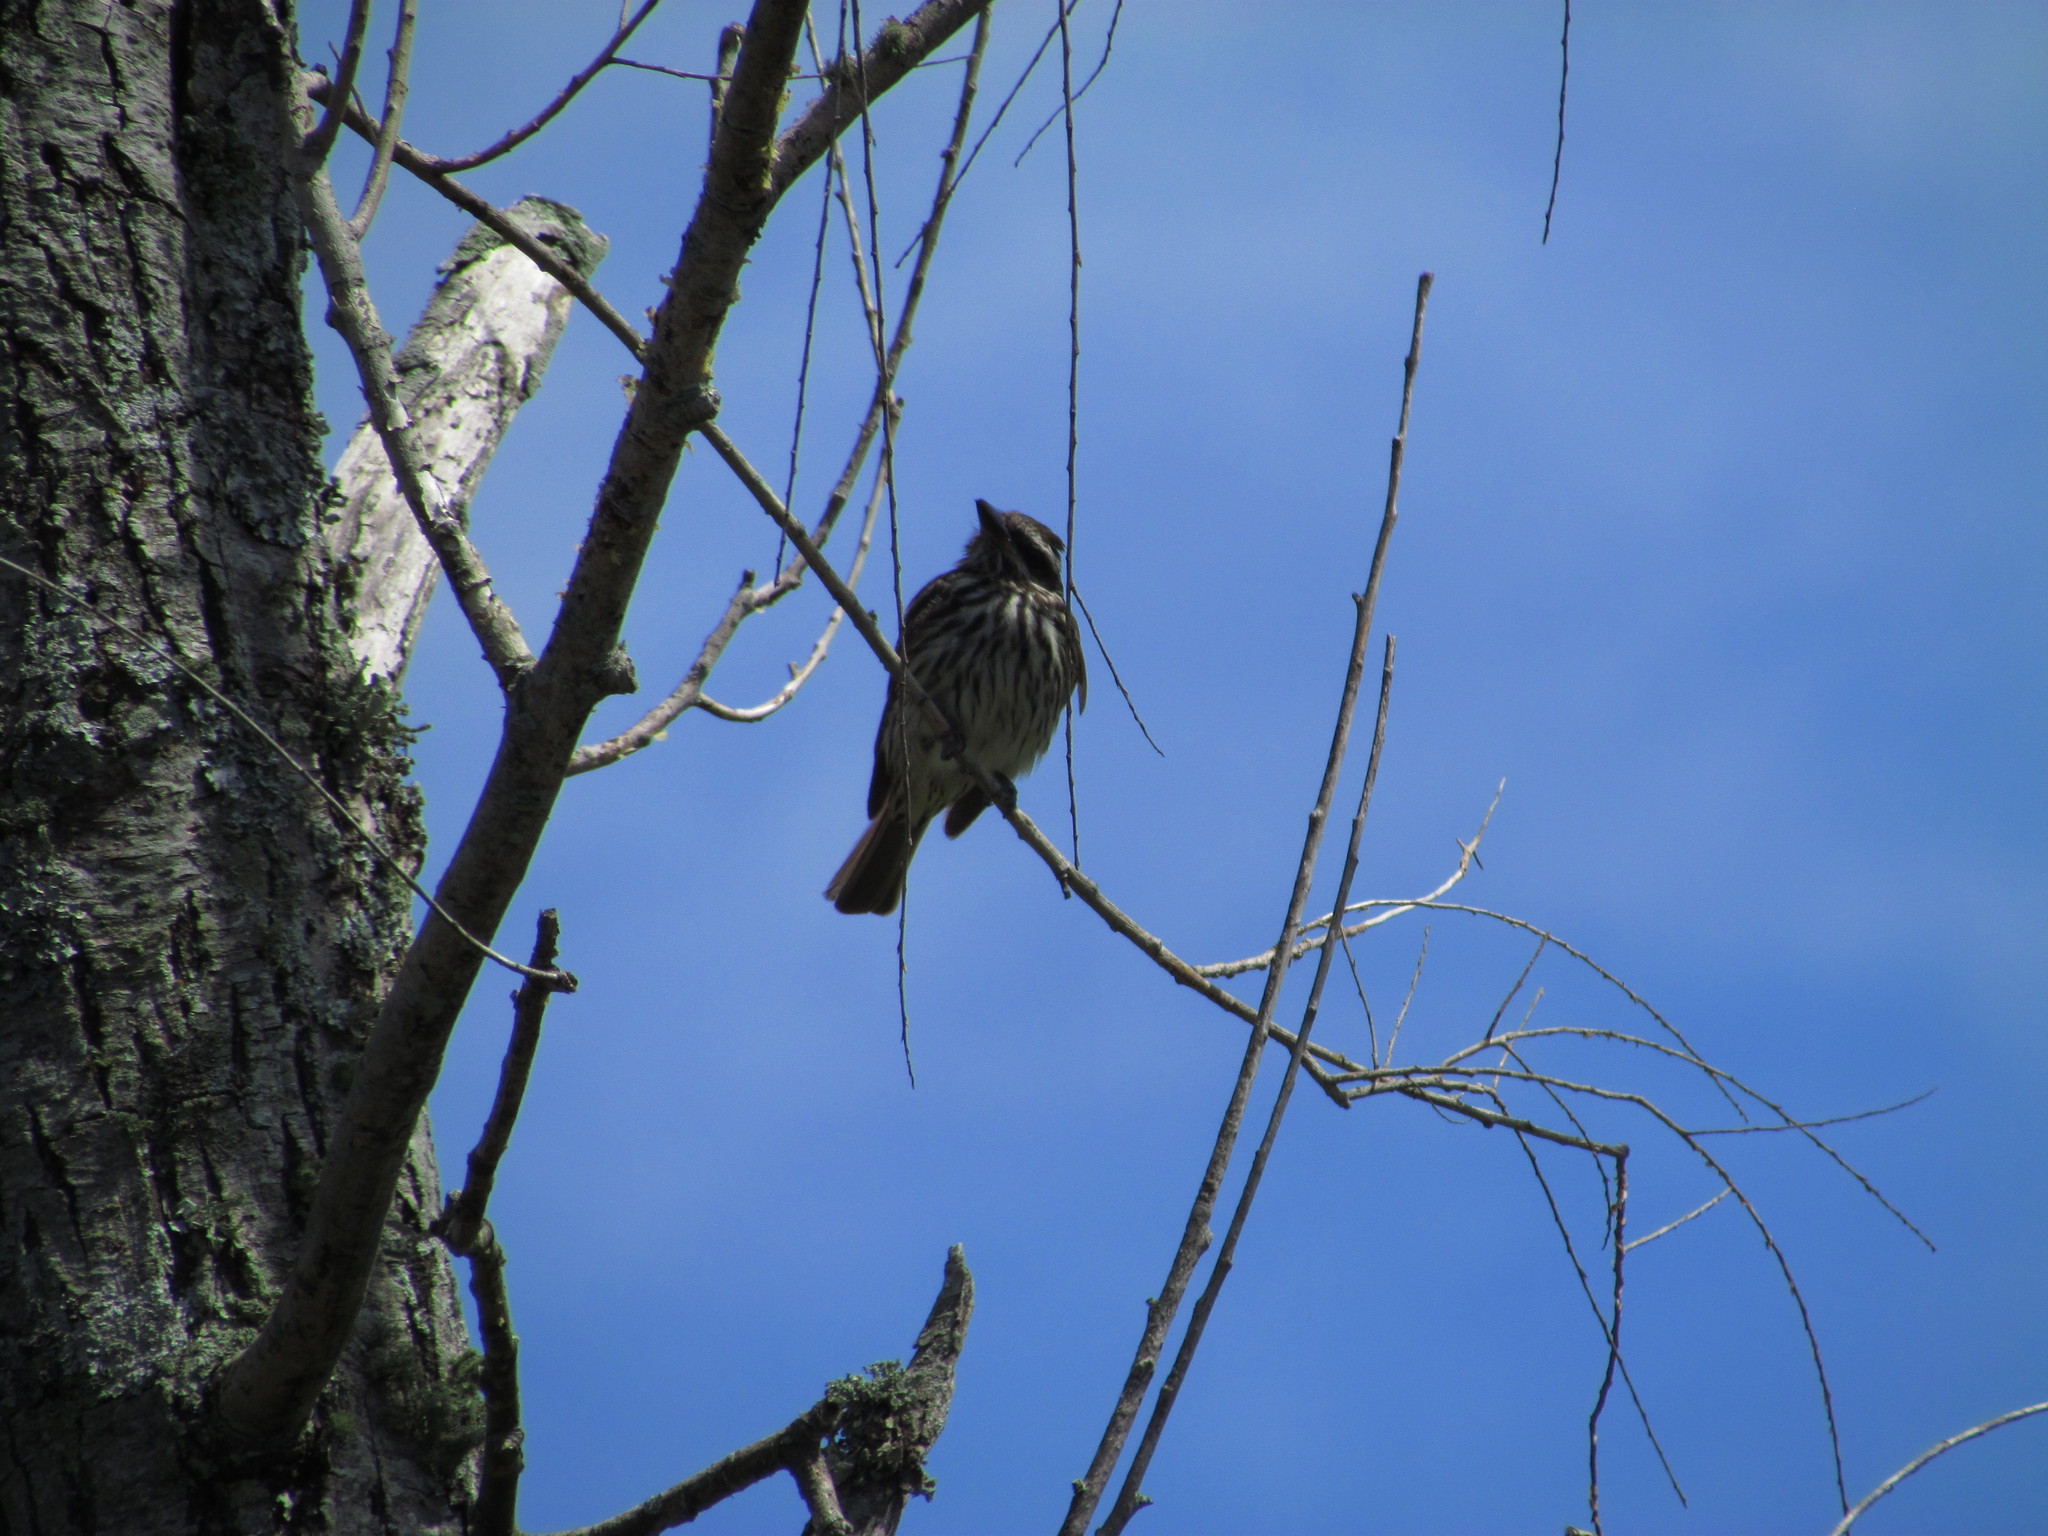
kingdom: Animalia
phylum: Chordata
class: Aves
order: Passeriformes
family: Tyrannidae
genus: Myiodynastes
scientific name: Myiodynastes maculatus
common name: Streaked flycatcher
